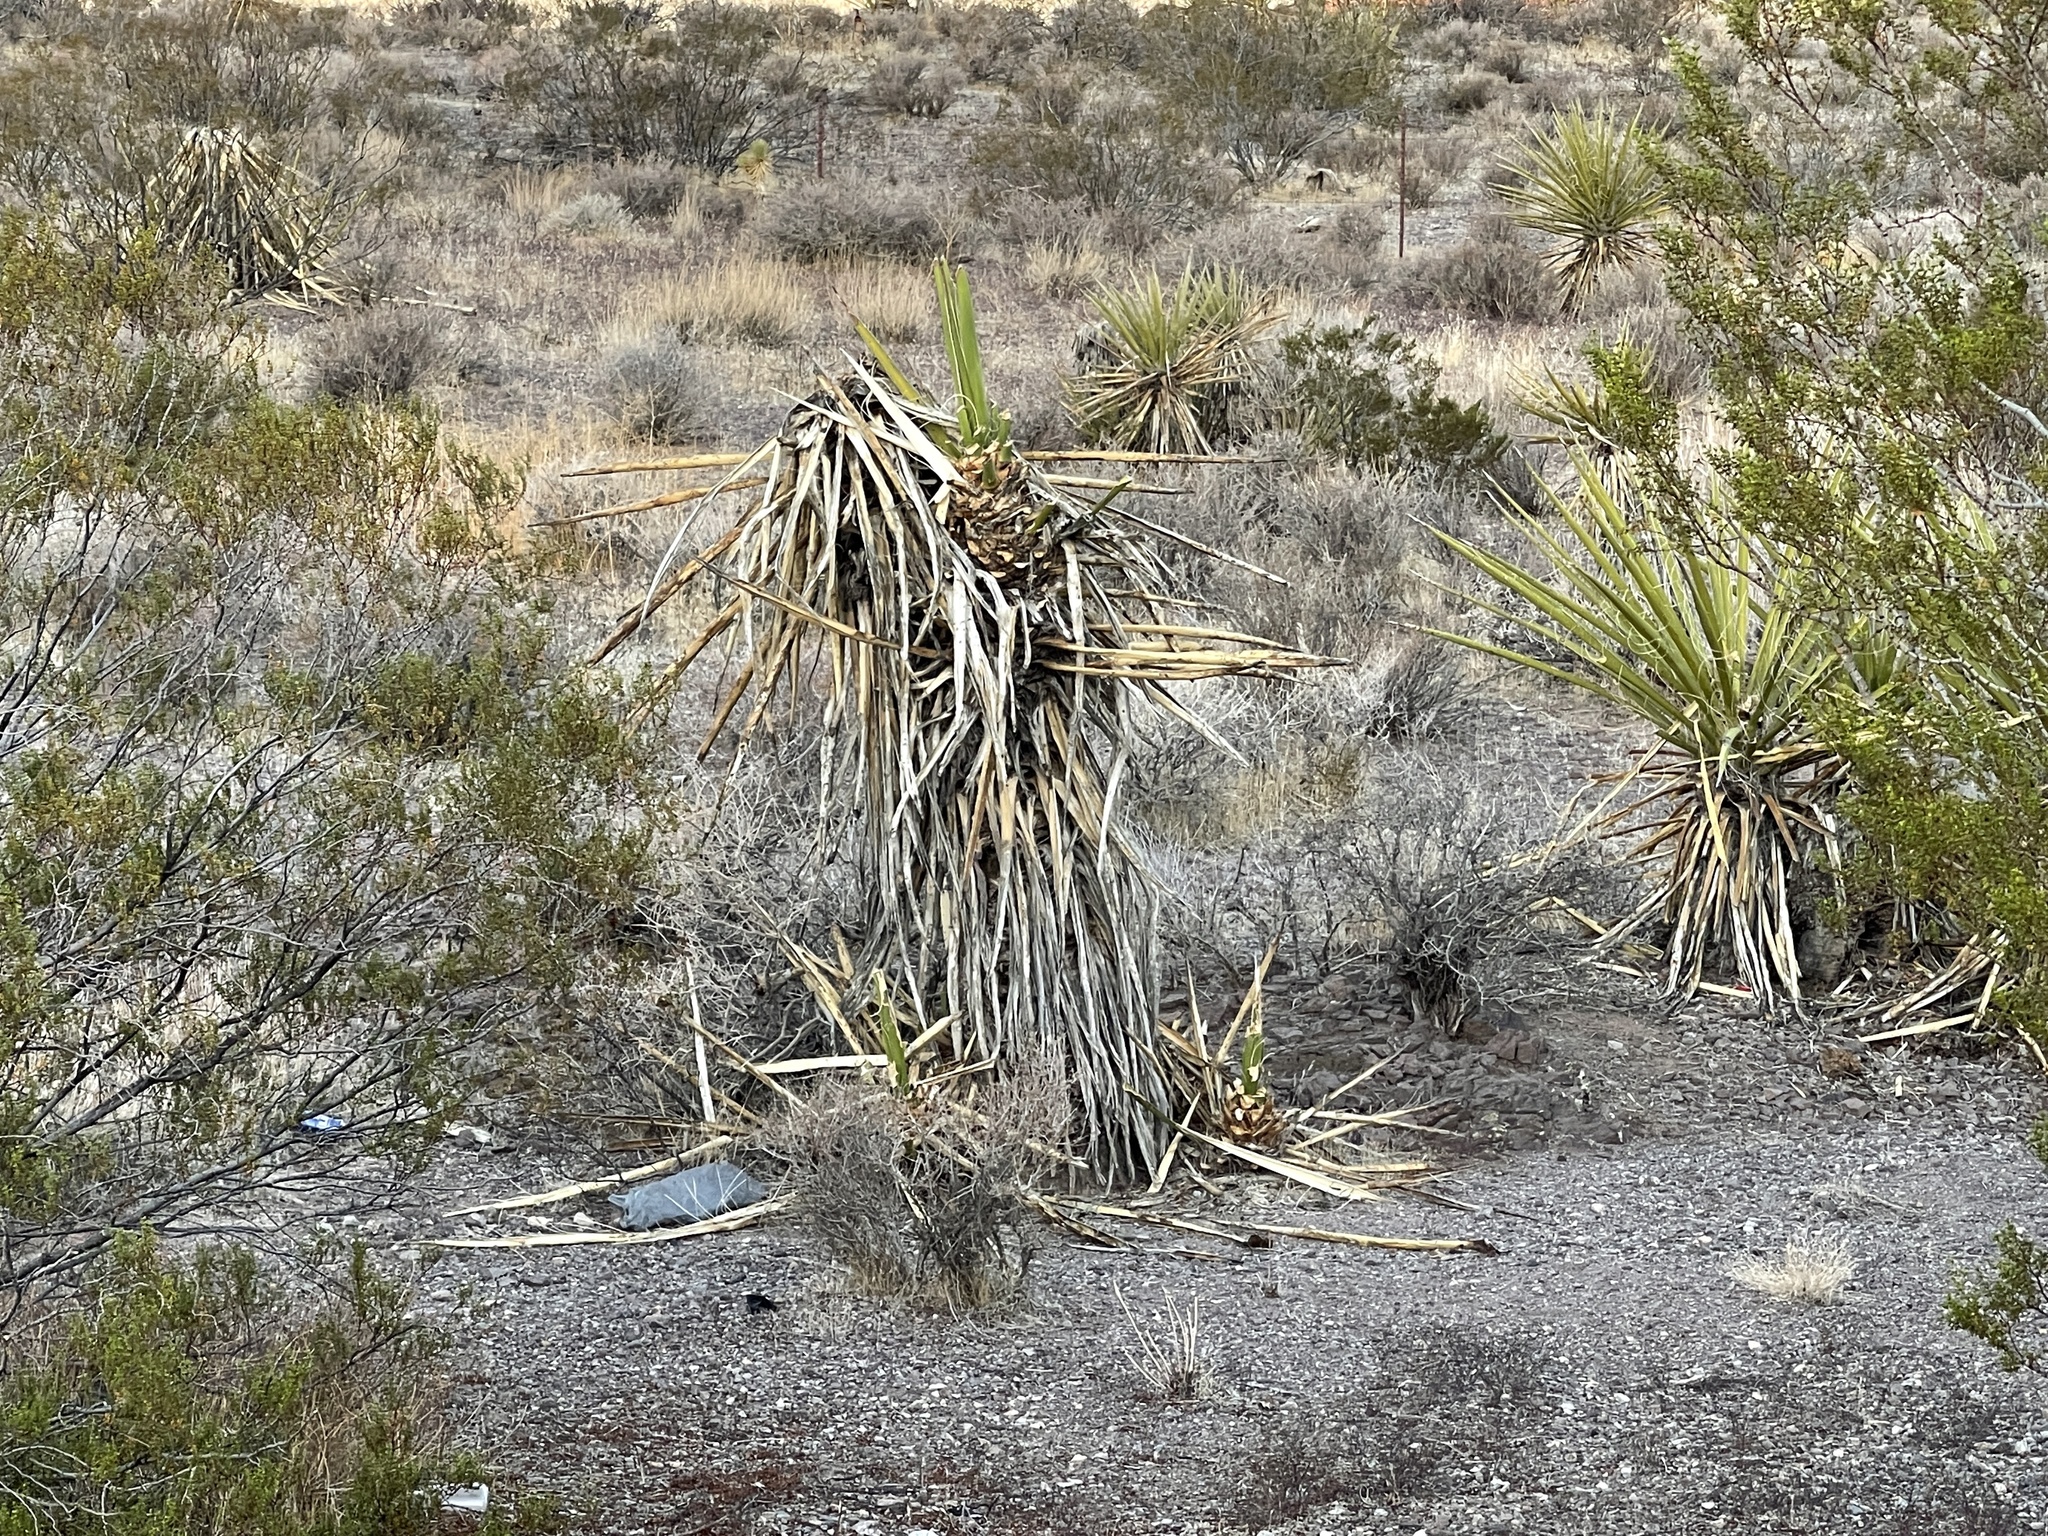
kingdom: Plantae
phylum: Tracheophyta
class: Liliopsida
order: Asparagales
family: Asparagaceae
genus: Yucca
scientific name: Yucca schidigera
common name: Mojave yucca
